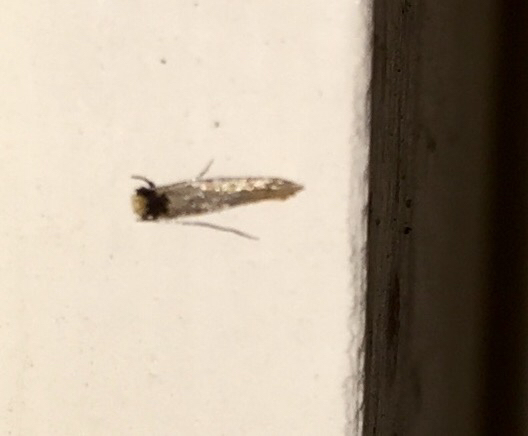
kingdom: Animalia
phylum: Arthropoda
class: Insecta
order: Lepidoptera
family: Meessiidae
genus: Homostinea
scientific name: Homostinea curviliniella
